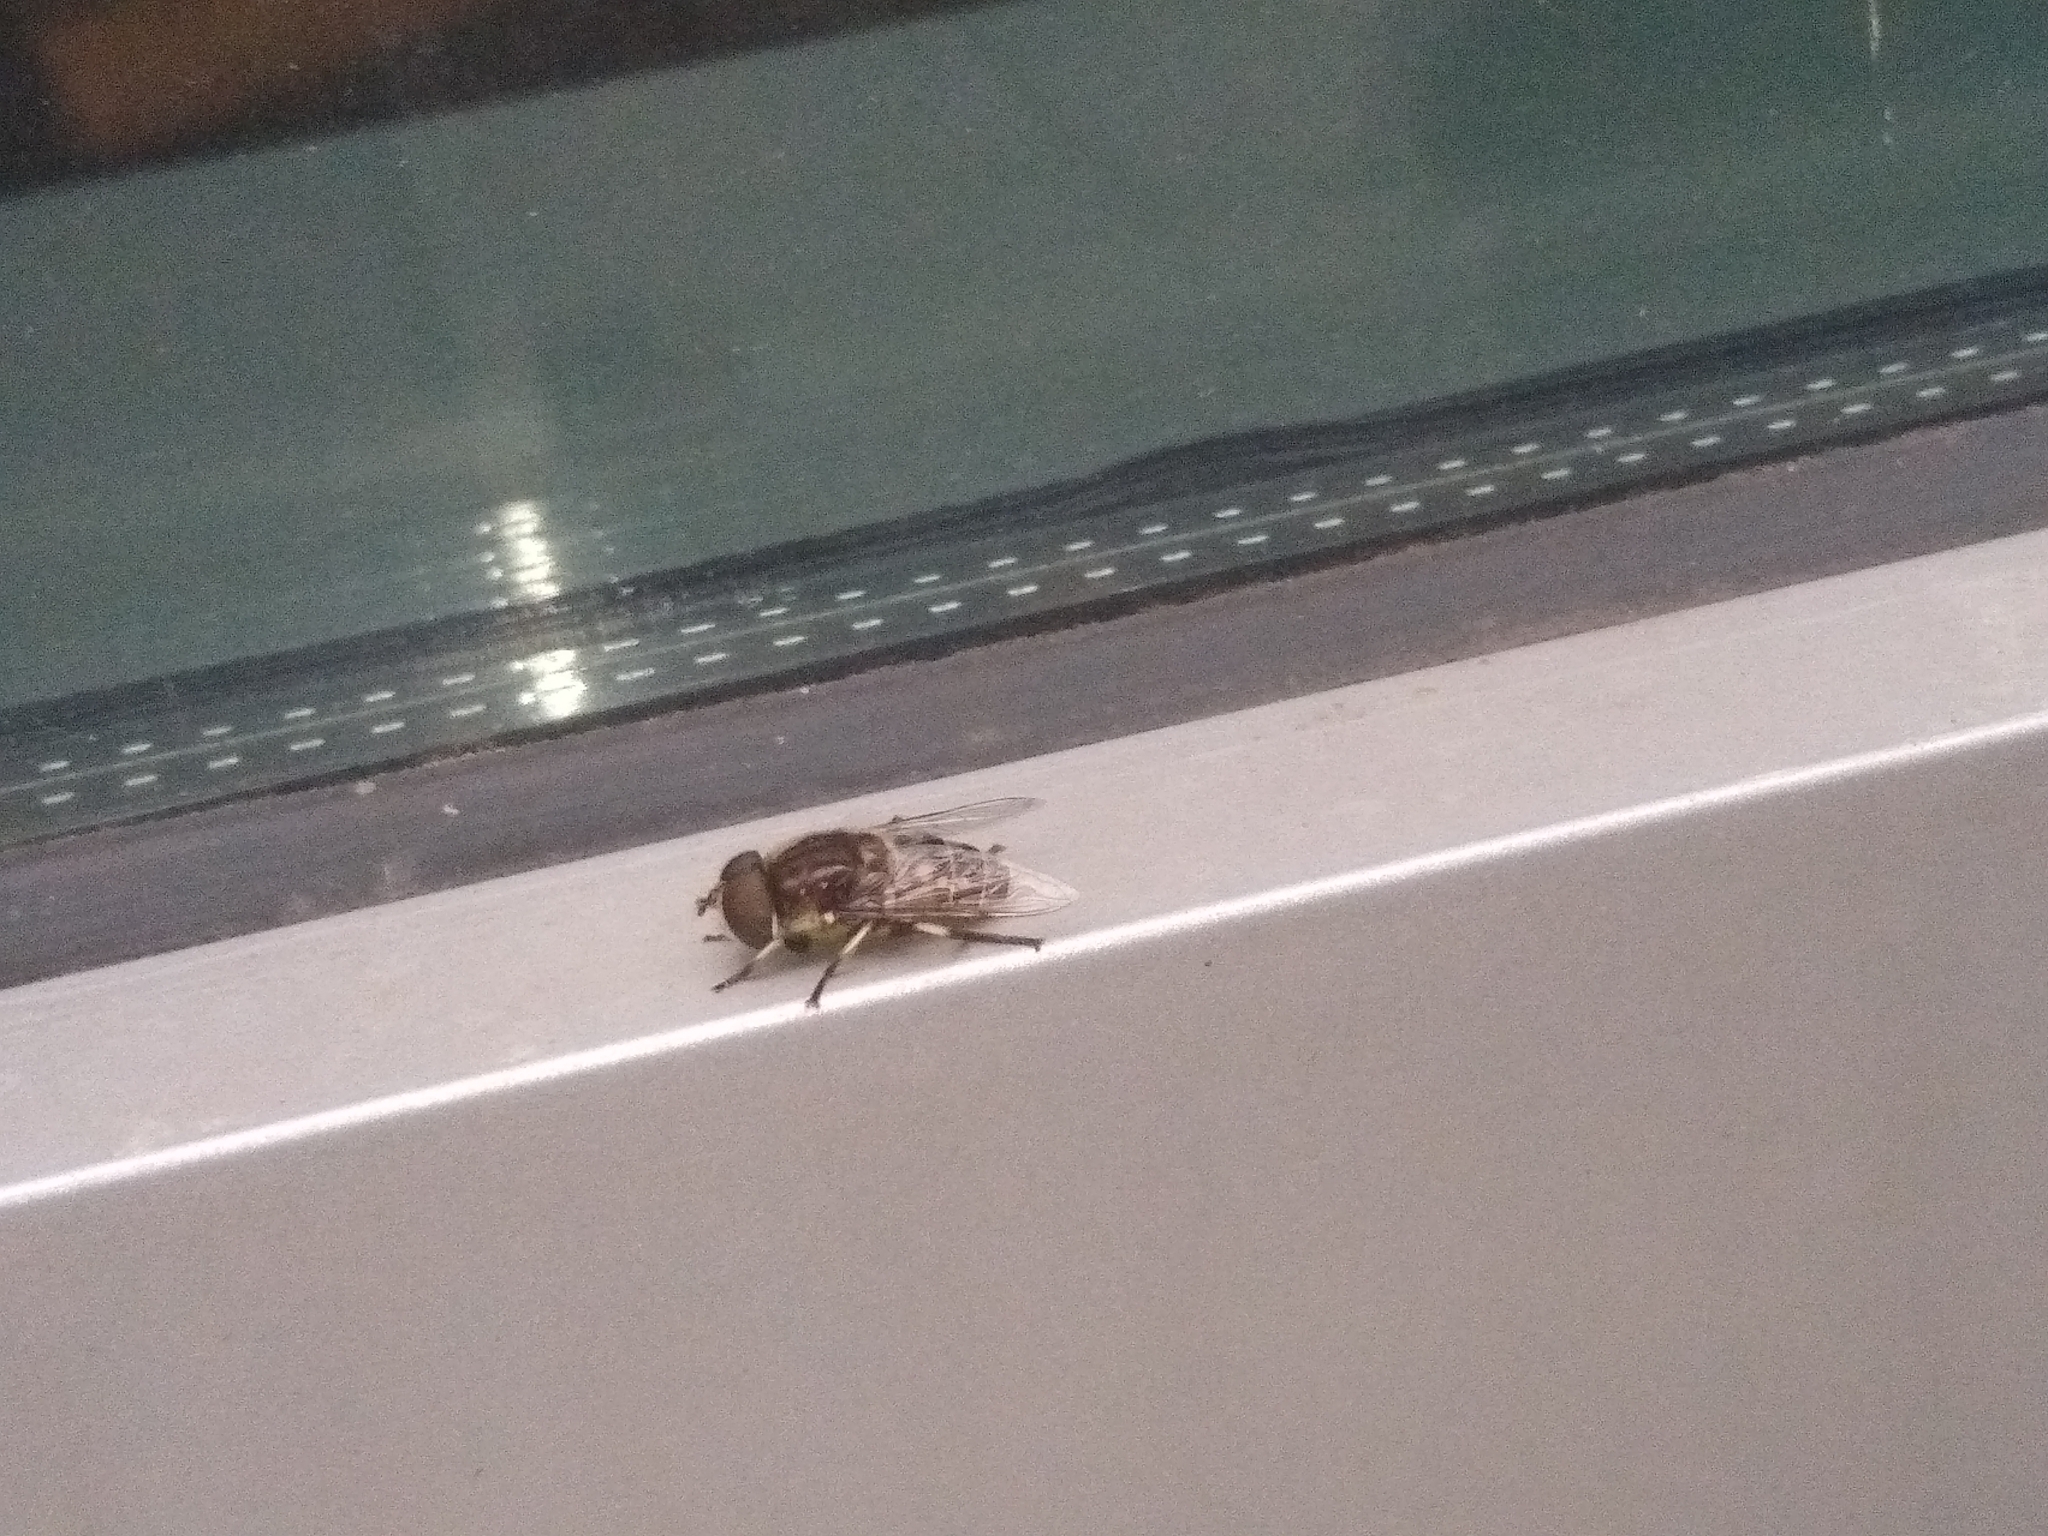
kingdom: Animalia
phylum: Arthropoda
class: Insecta
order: Diptera
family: Syrphidae
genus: Eristalis
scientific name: Eristalis dimidiata
